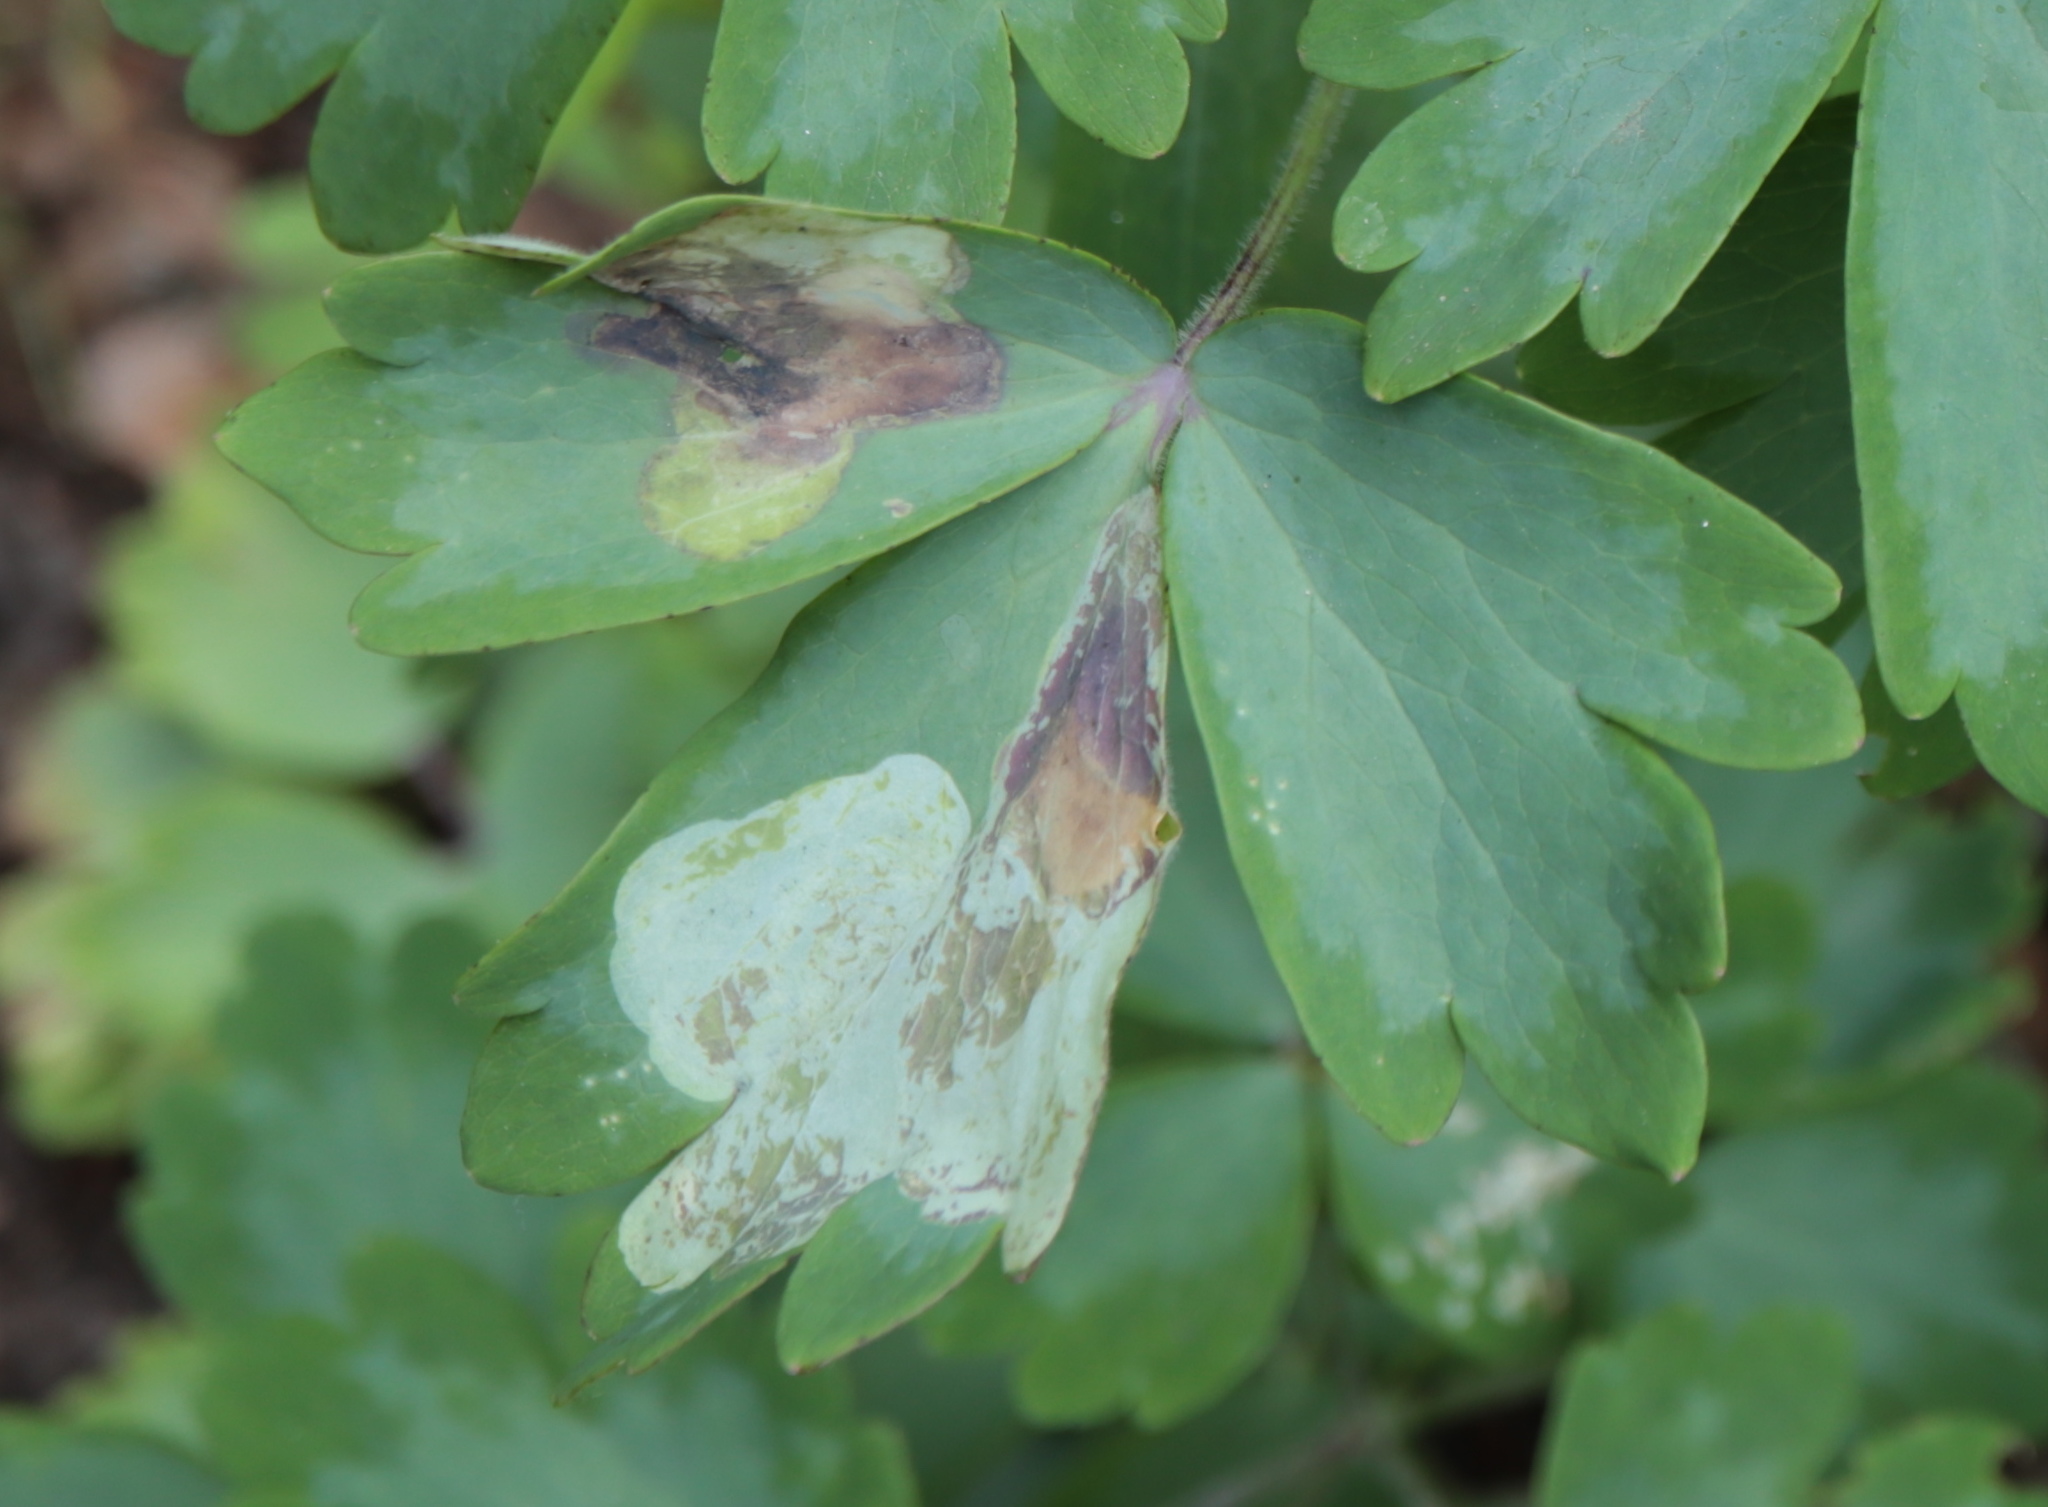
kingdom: Animalia
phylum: Arthropoda
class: Insecta
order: Diptera
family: Agromyzidae
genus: Phytomyza
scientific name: Phytomyza aquilegiana
